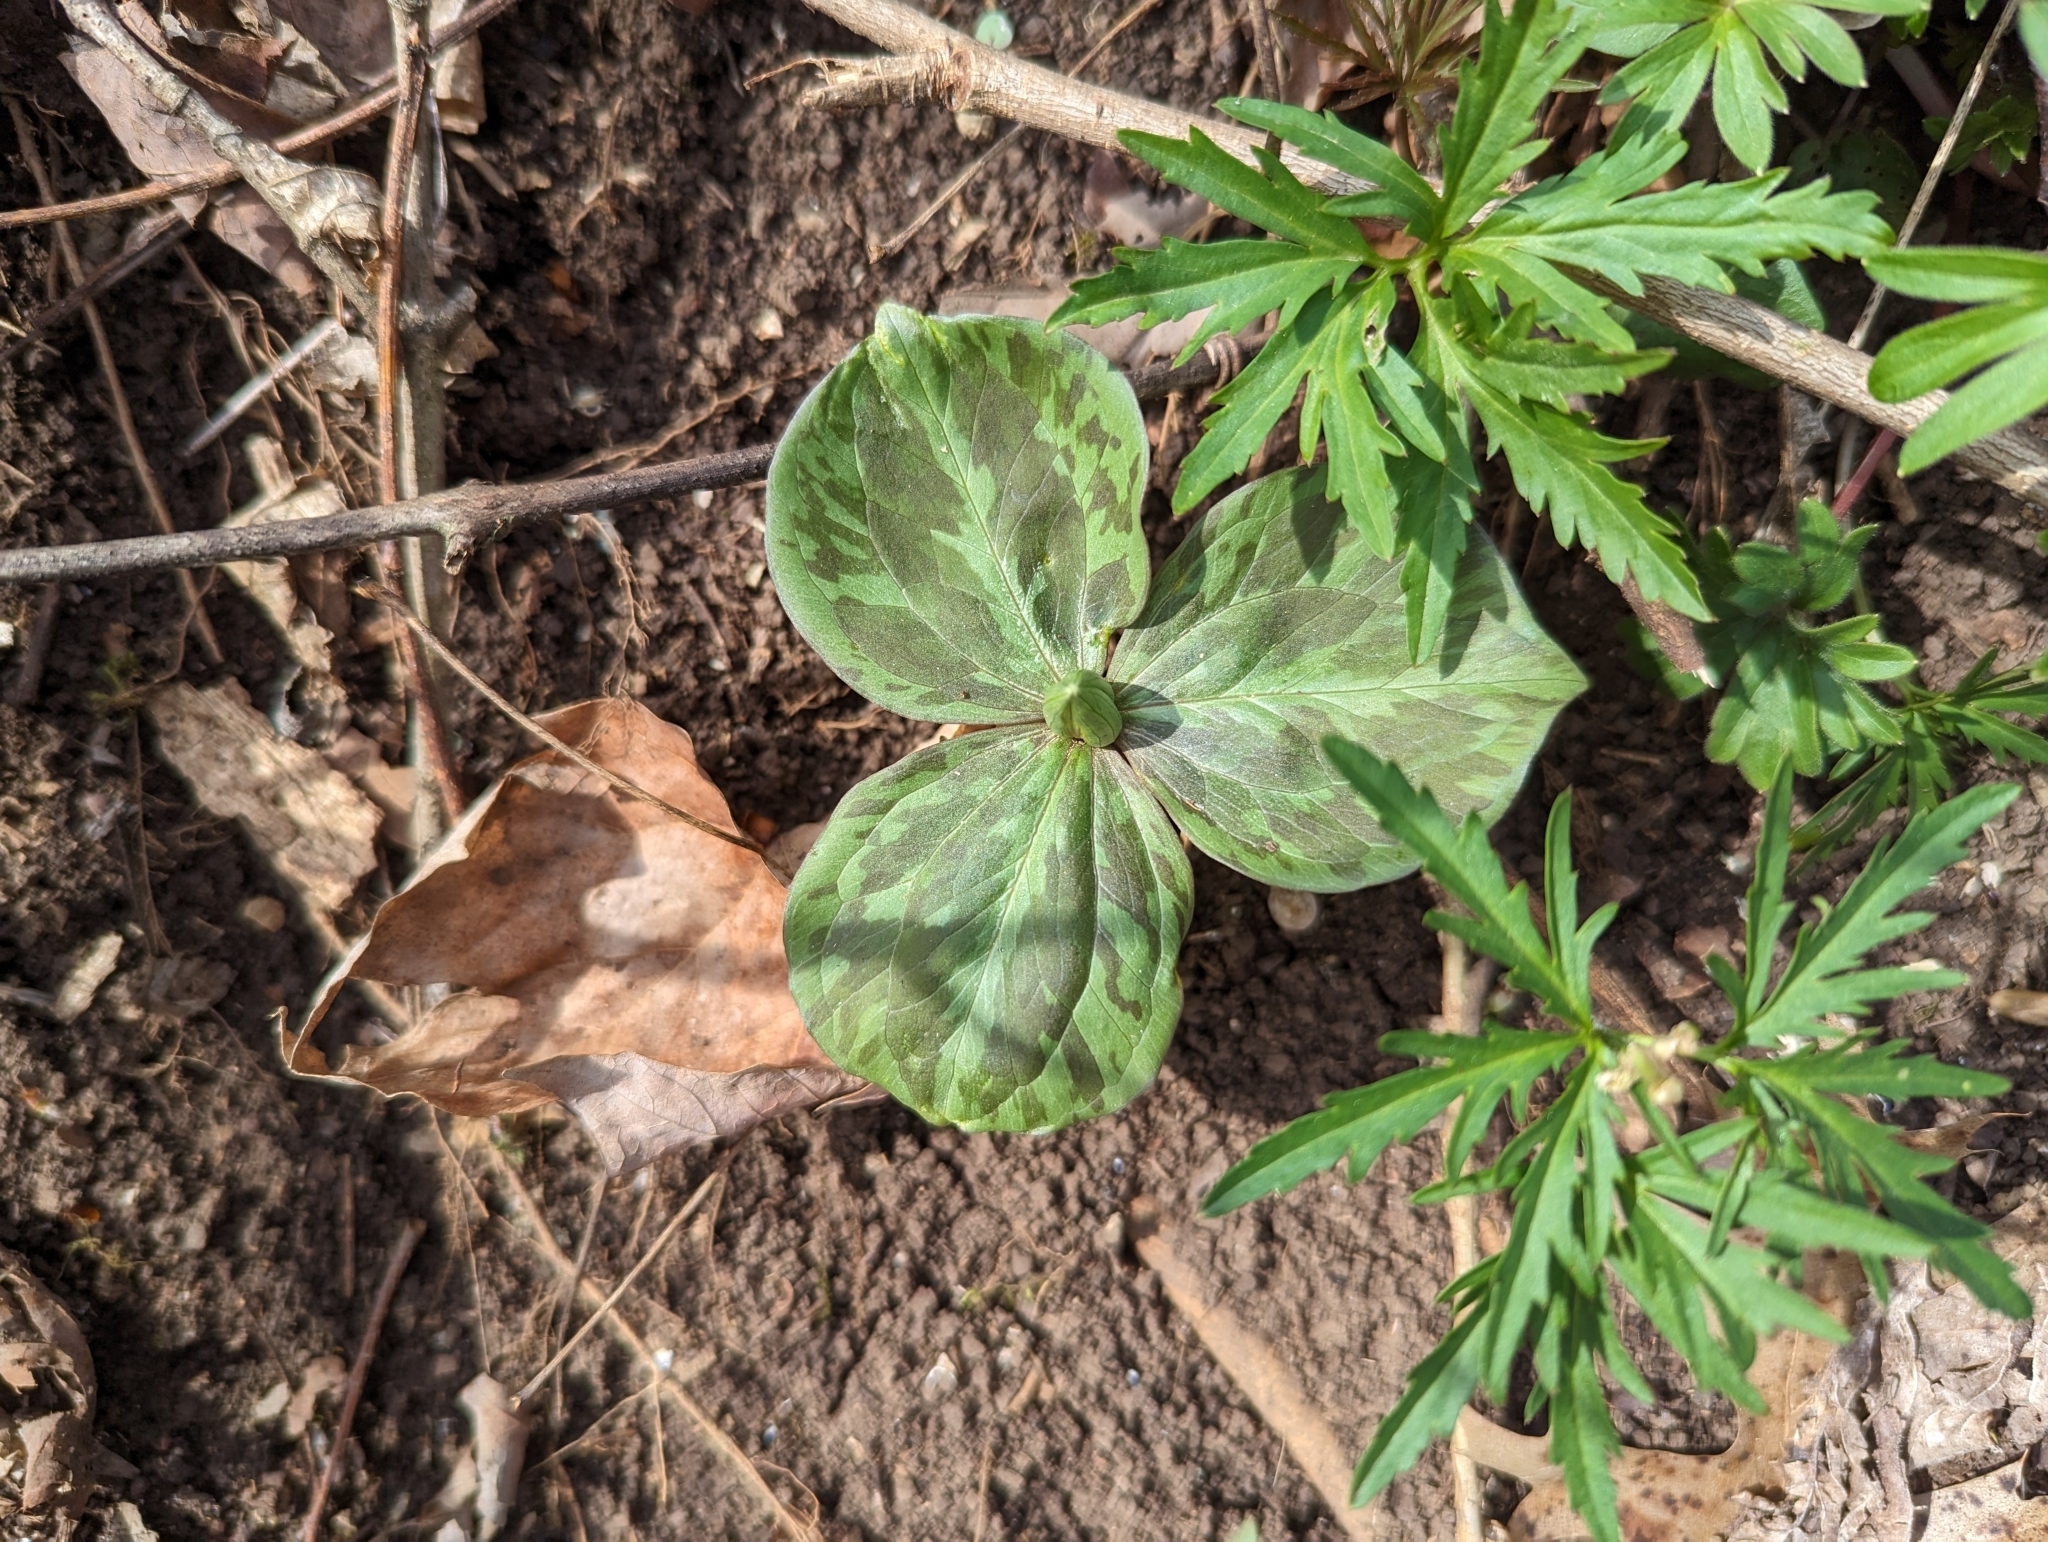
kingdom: Plantae
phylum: Tracheophyta
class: Liliopsida
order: Liliales
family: Melanthiaceae
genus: Trillium
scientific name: Trillium sessile
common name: Sessile trillium
